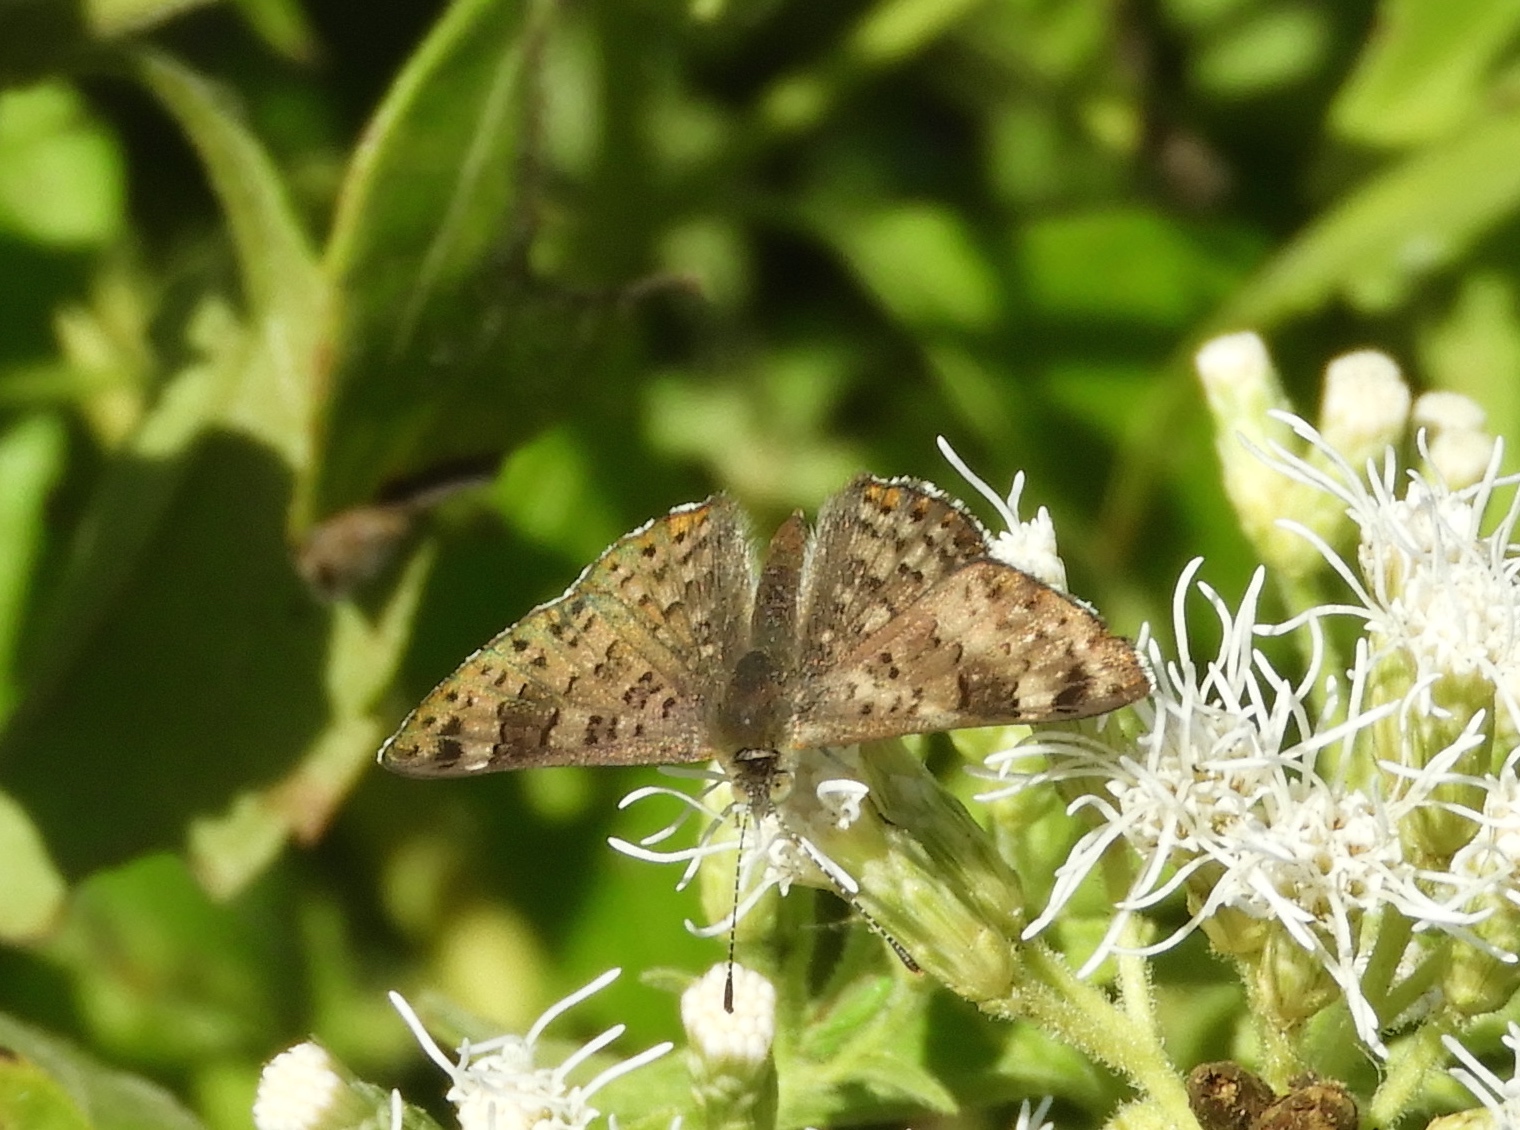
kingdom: Animalia
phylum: Arthropoda
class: Insecta
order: Lepidoptera
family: Riodinidae
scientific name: Riodinidae
